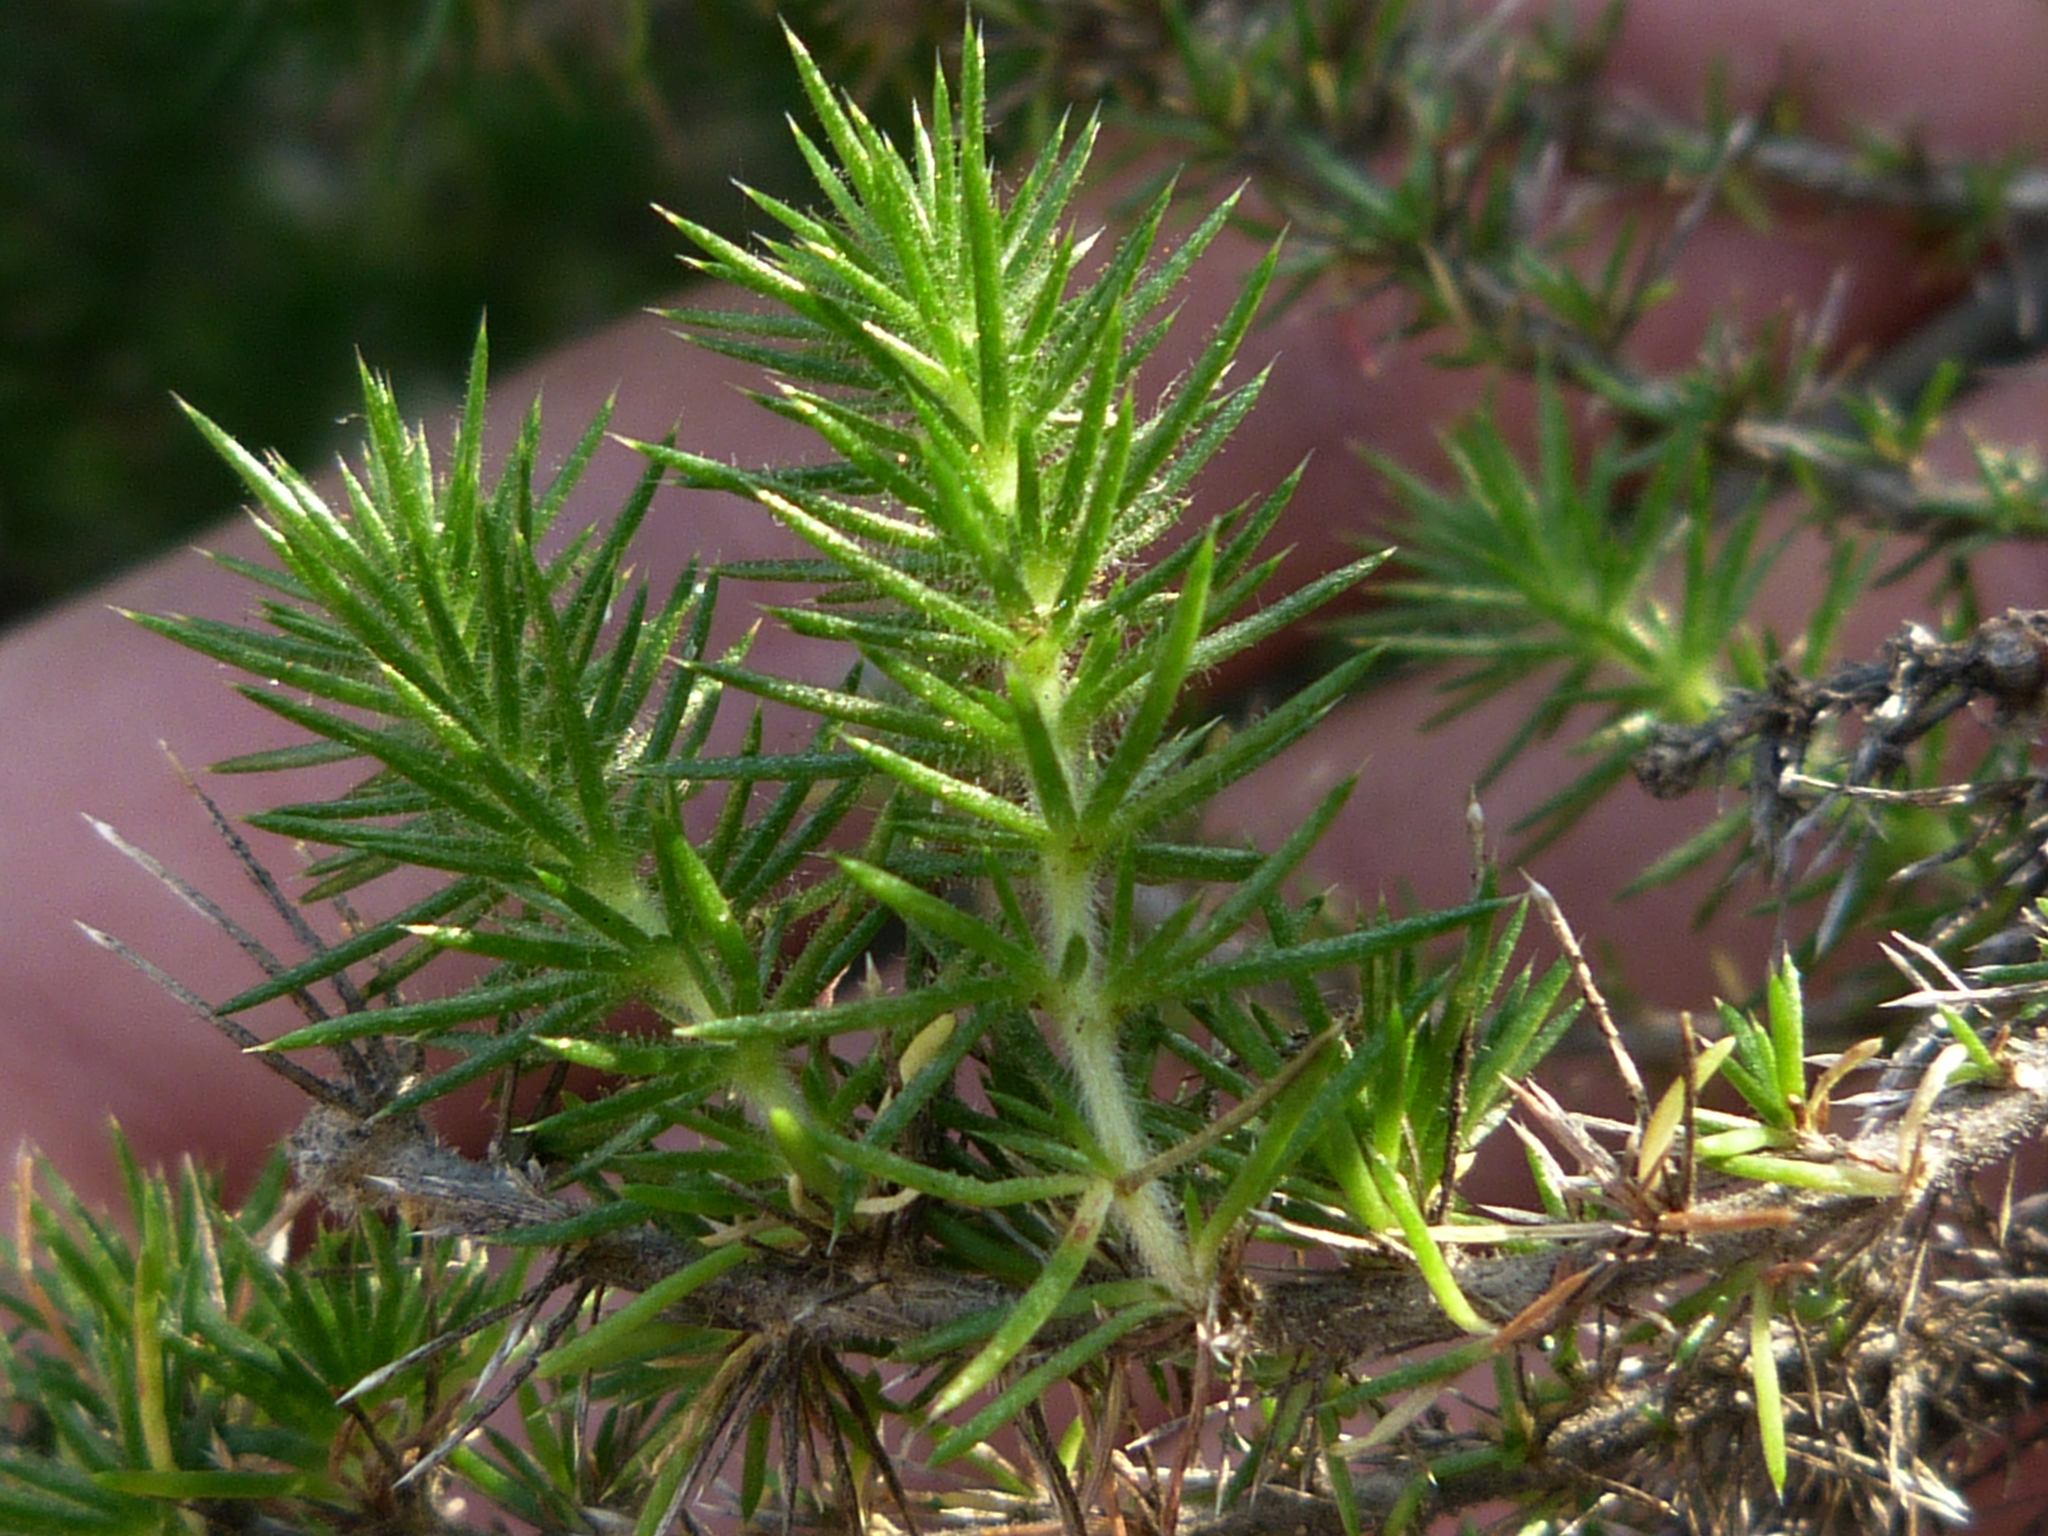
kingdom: Plantae
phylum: Tracheophyta
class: Magnoliopsida
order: Ericales
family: Polemoniaceae
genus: Linanthus
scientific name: Linanthus californicus
